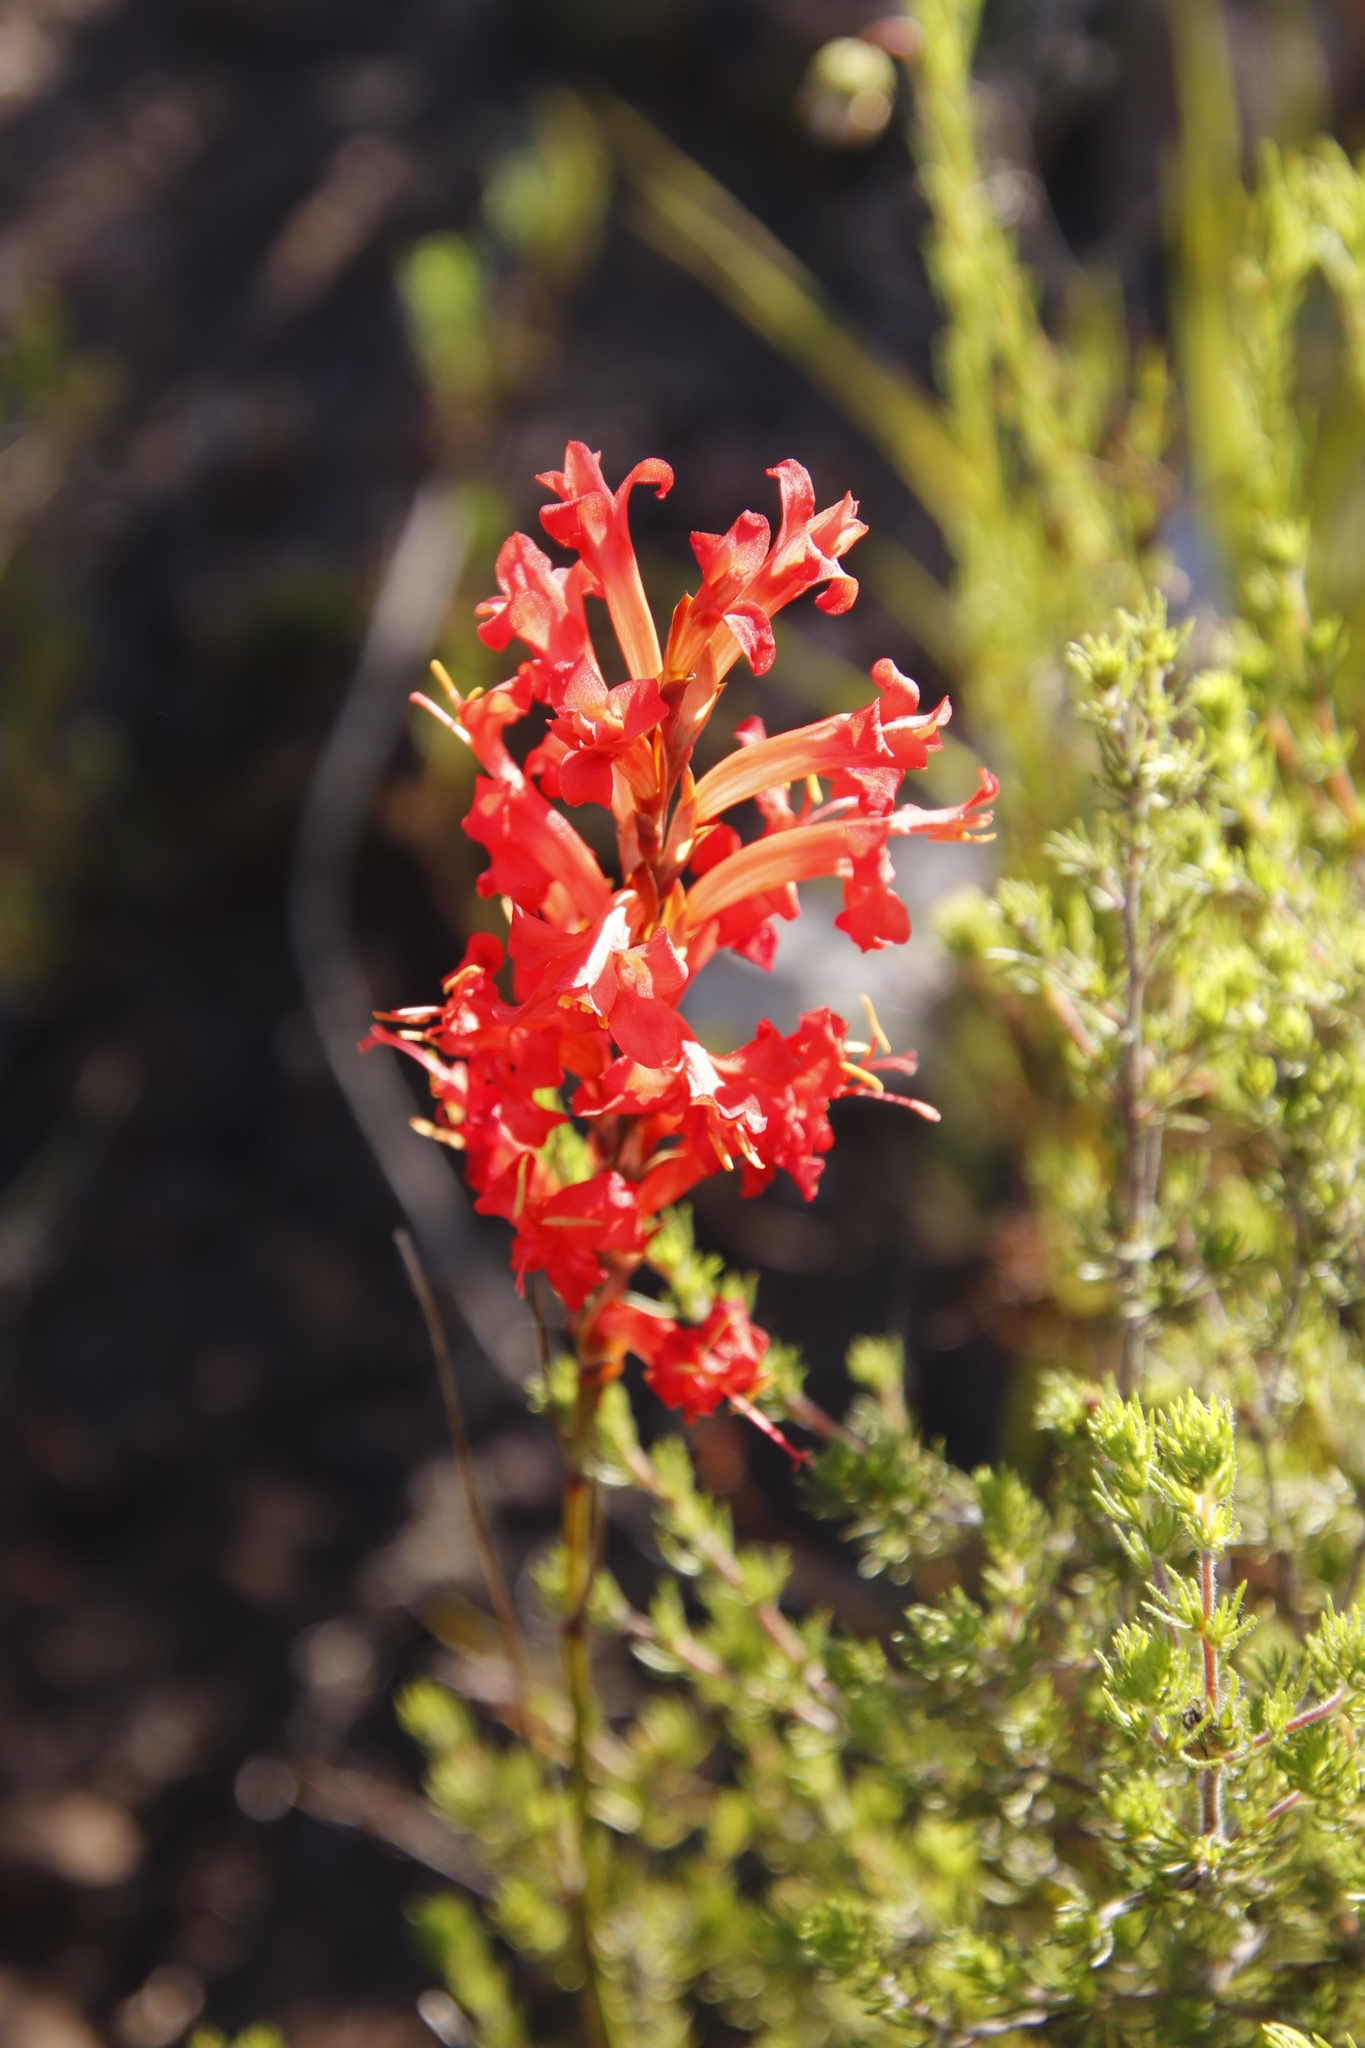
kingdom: Plantae
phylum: Tracheophyta
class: Liliopsida
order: Asparagales
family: Iridaceae
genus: Tritoniopsis
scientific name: Tritoniopsis triticea
